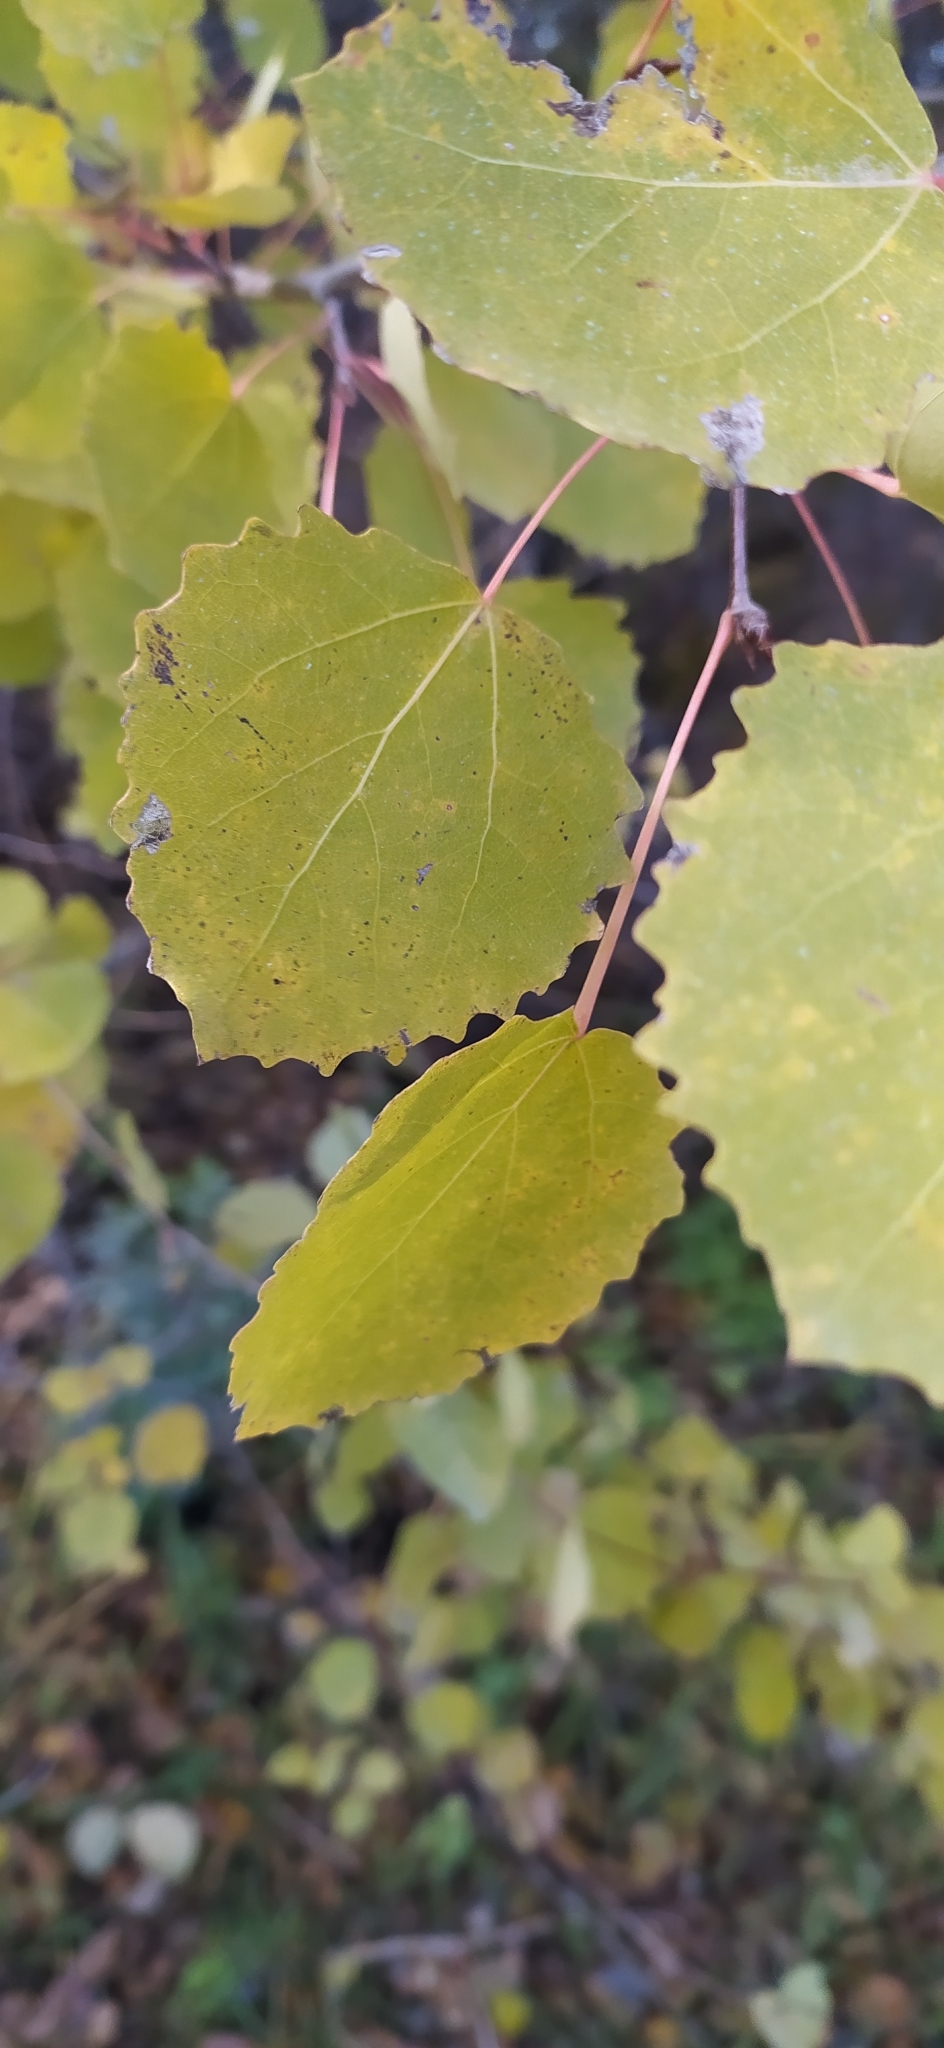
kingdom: Plantae
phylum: Tracheophyta
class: Magnoliopsida
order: Malpighiales
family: Salicaceae
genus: Populus
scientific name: Populus tremula
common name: European aspen
